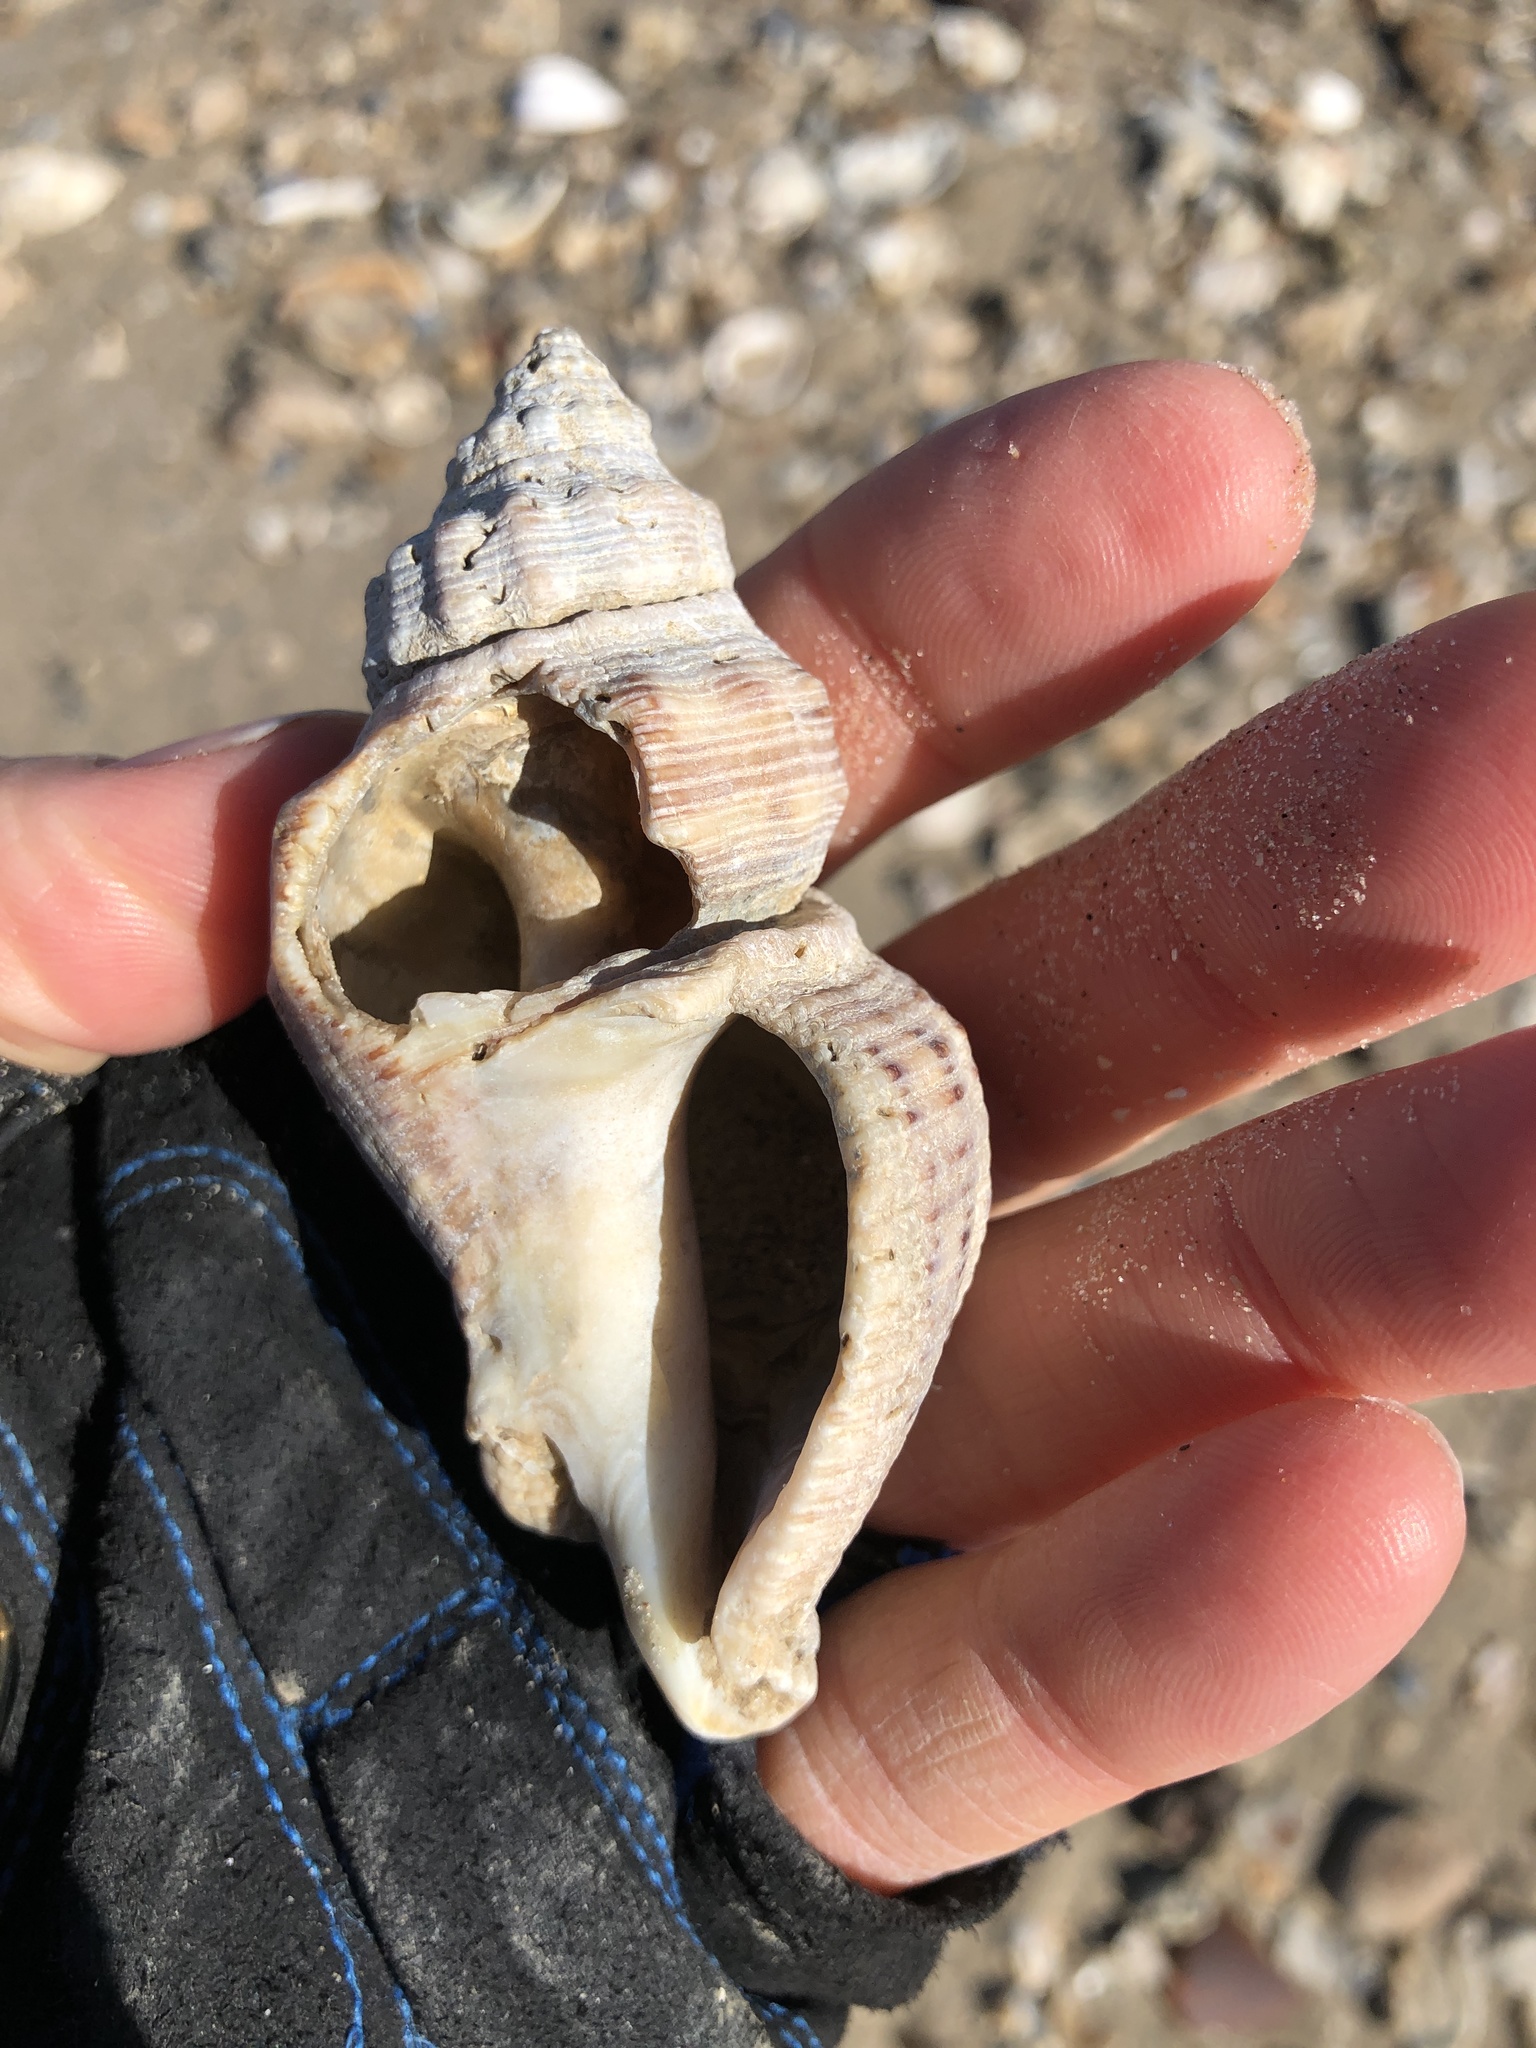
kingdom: Animalia
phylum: Mollusca
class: Gastropoda
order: Neogastropoda
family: Muricidae
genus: Stramonita
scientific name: Stramonita canaliculata
